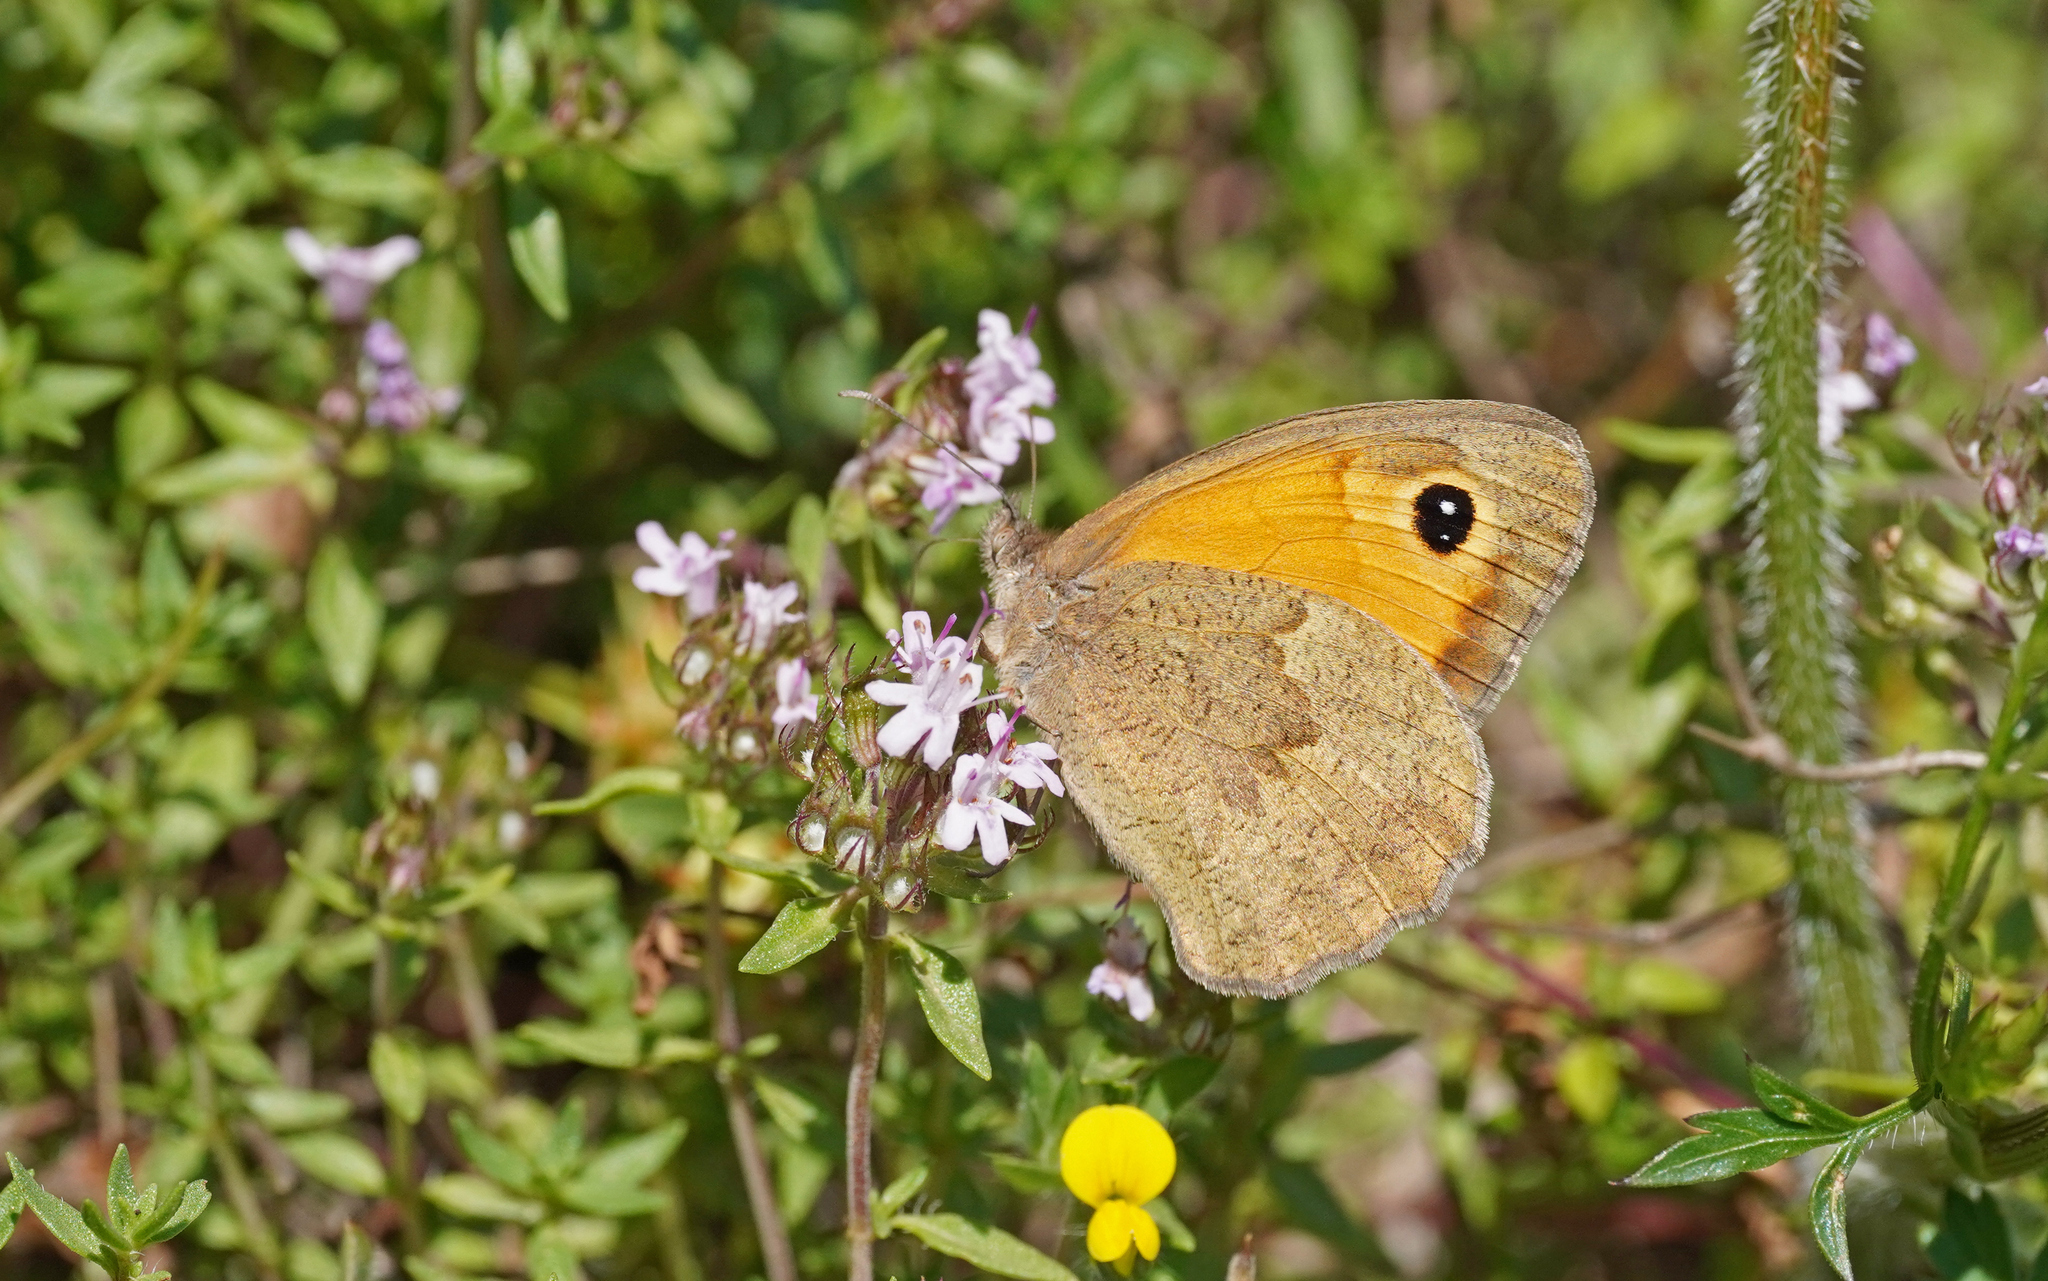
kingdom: Animalia
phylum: Arthropoda
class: Insecta
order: Lepidoptera
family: Nymphalidae
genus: Maniola
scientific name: Maniola nurag
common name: Sardinian meadow brown
